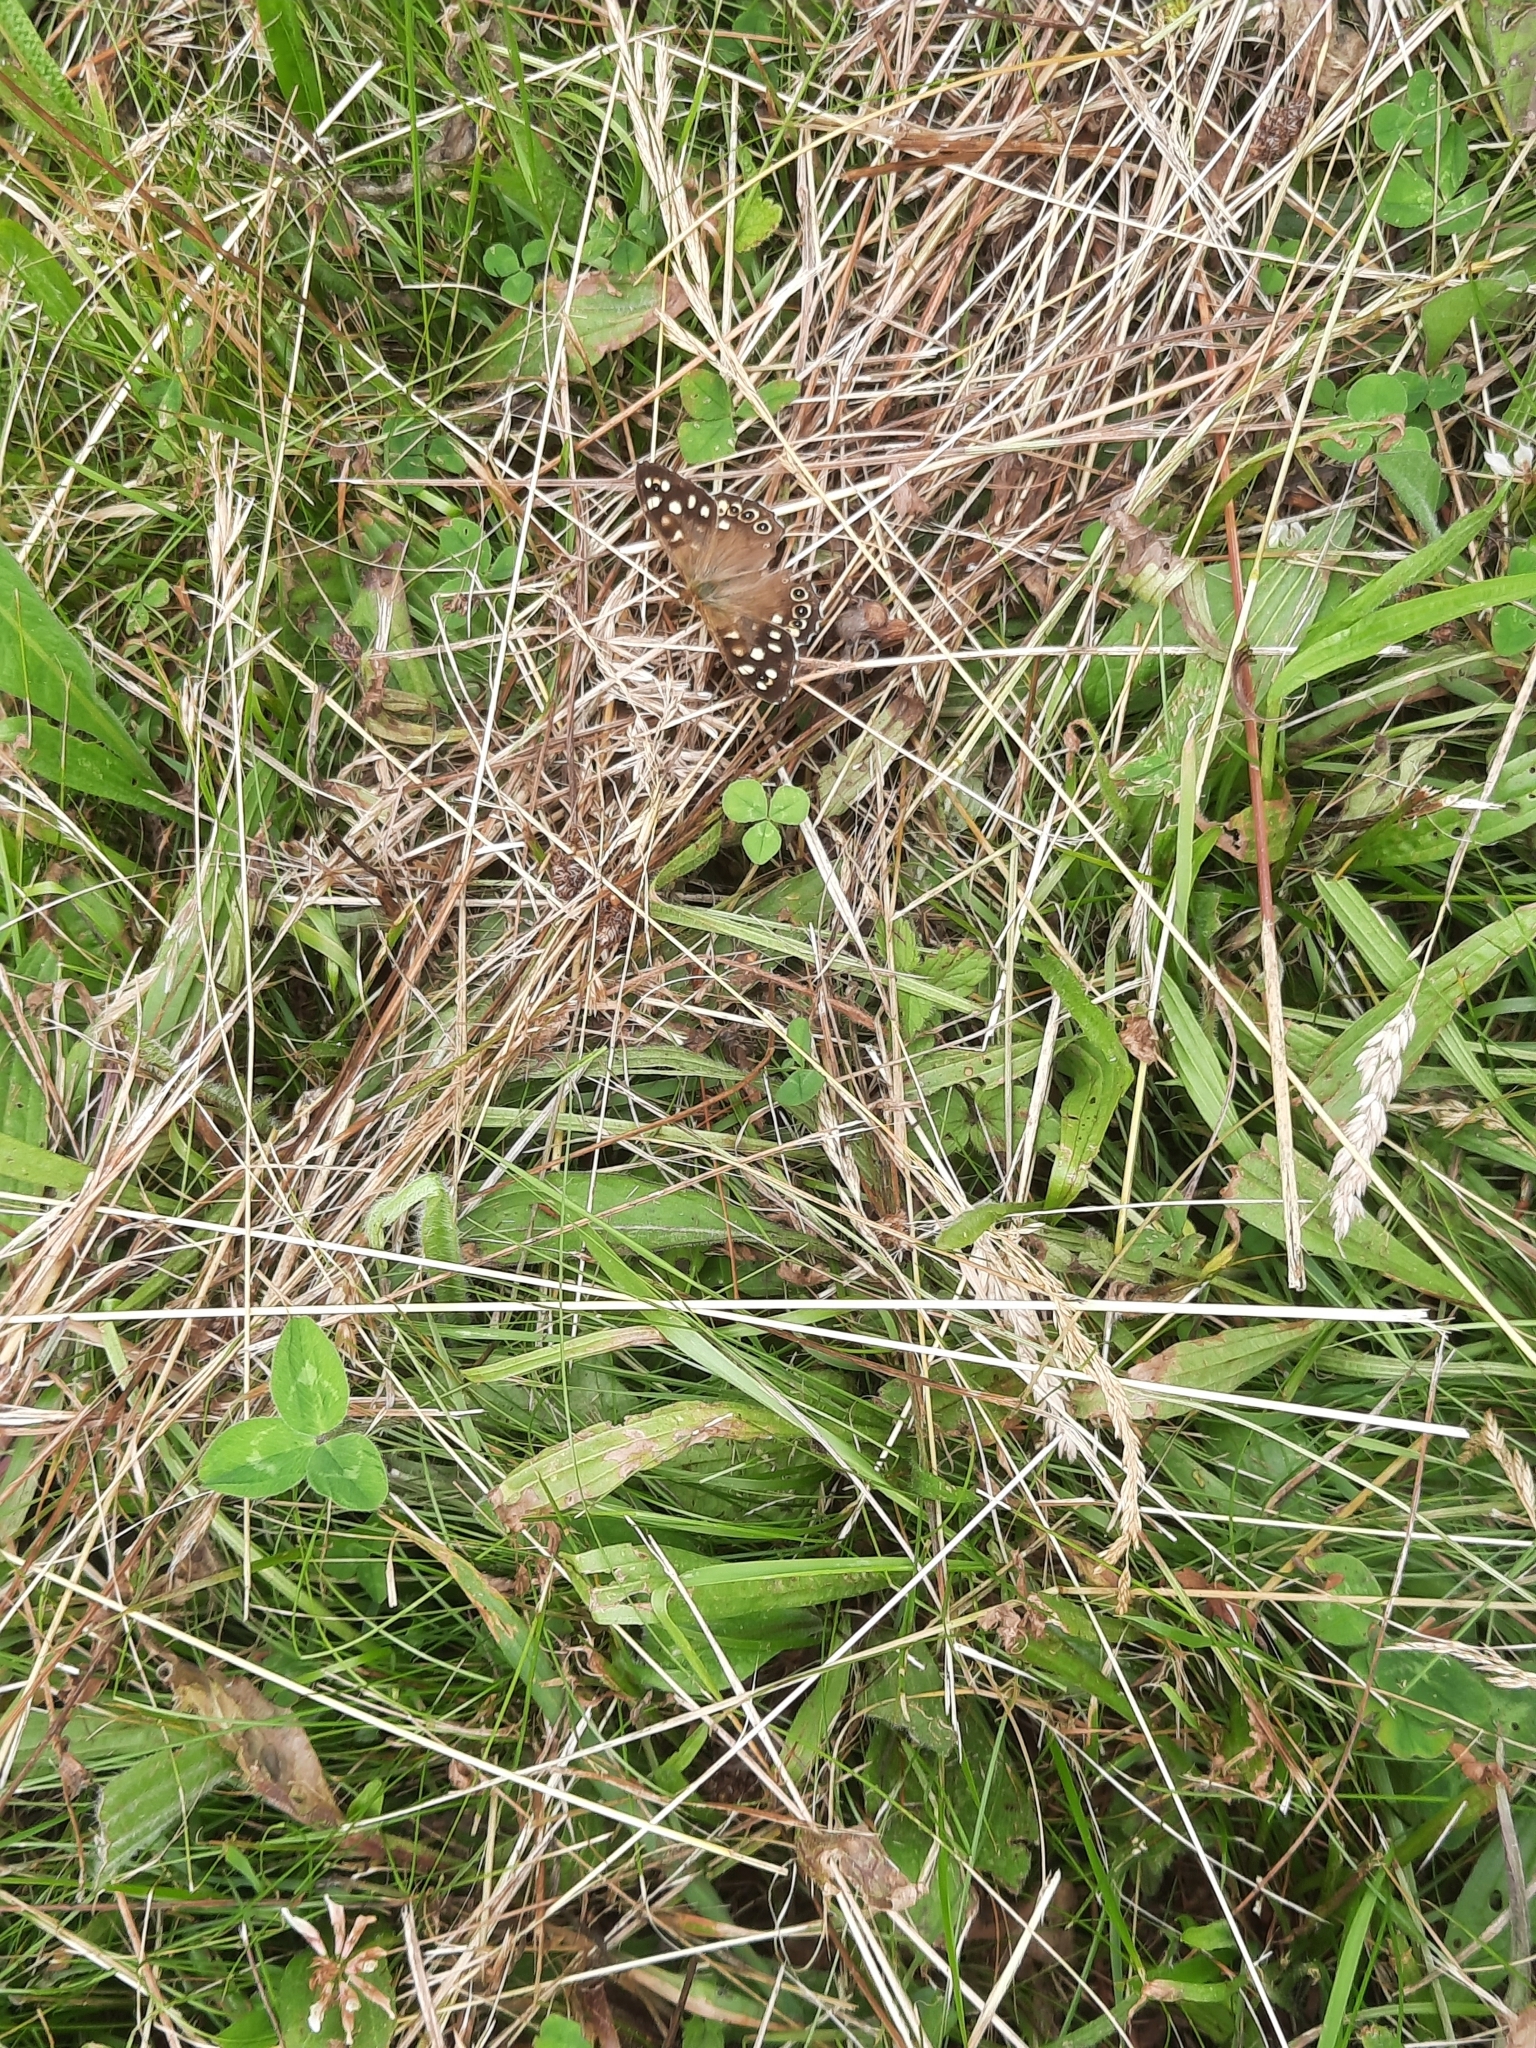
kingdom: Animalia
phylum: Arthropoda
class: Insecta
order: Lepidoptera
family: Nymphalidae
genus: Pararge
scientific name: Pararge aegeria
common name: Speckled wood
